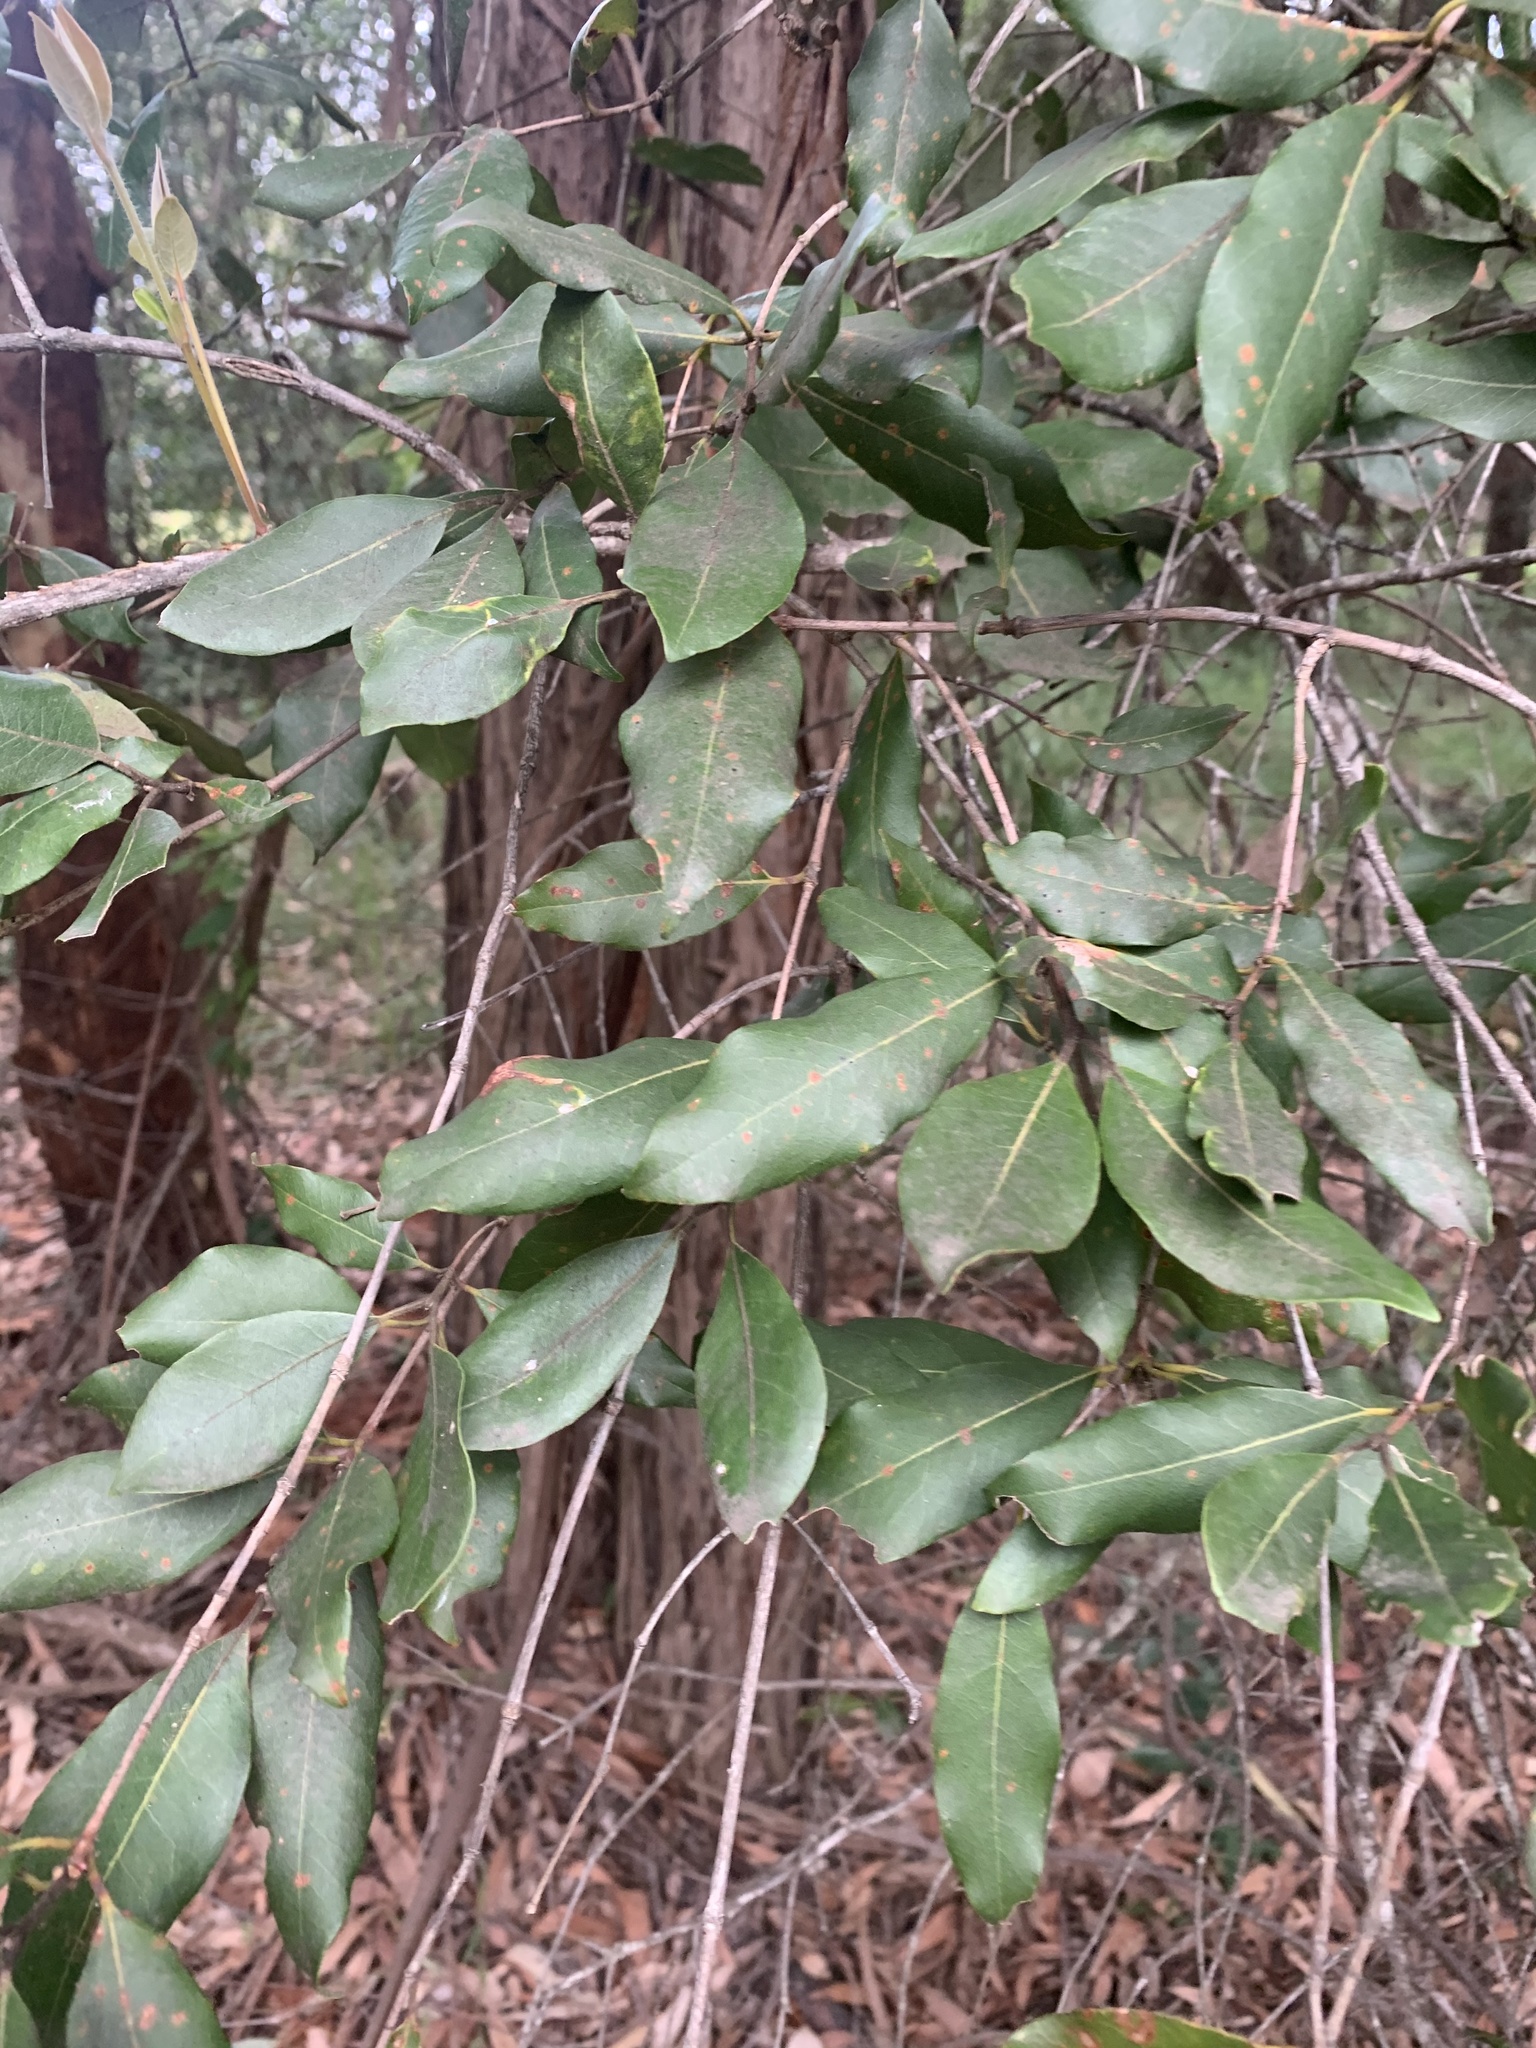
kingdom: Plantae
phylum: Tracheophyta
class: Magnoliopsida
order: Myrtales
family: Myrtaceae
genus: Syncarpia
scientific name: Syncarpia glomulifera
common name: Turpentine tree
